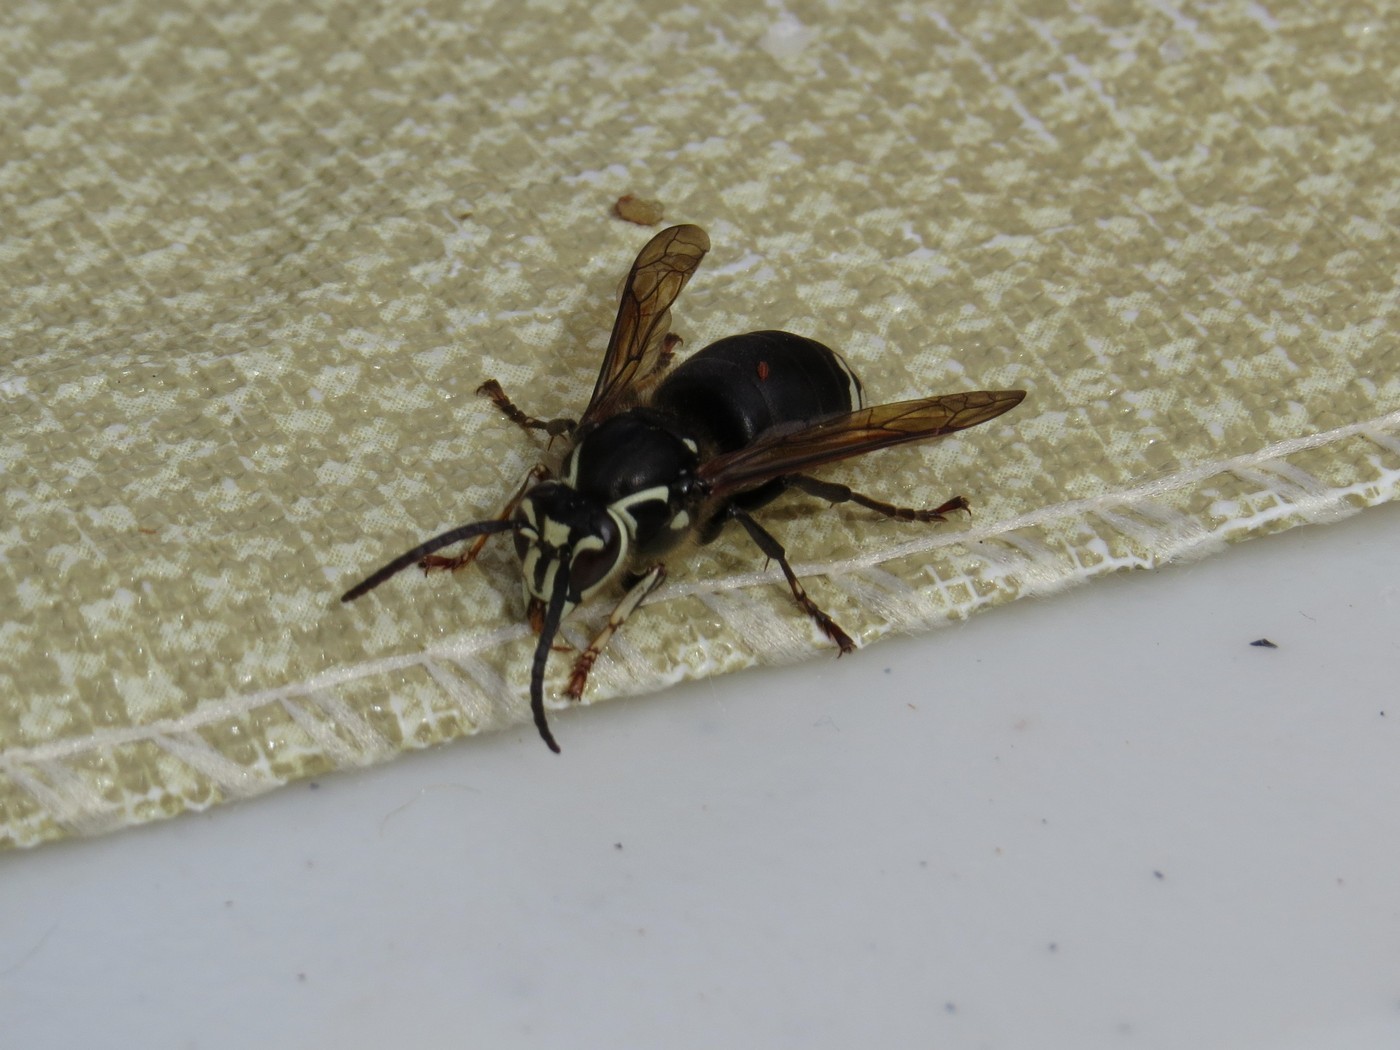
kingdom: Animalia
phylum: Arthropoda
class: Insecta
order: Hymenoptera
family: Vespidae
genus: Dolichovespula
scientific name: Dolichovespula maculata
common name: Bald-faced hornet
